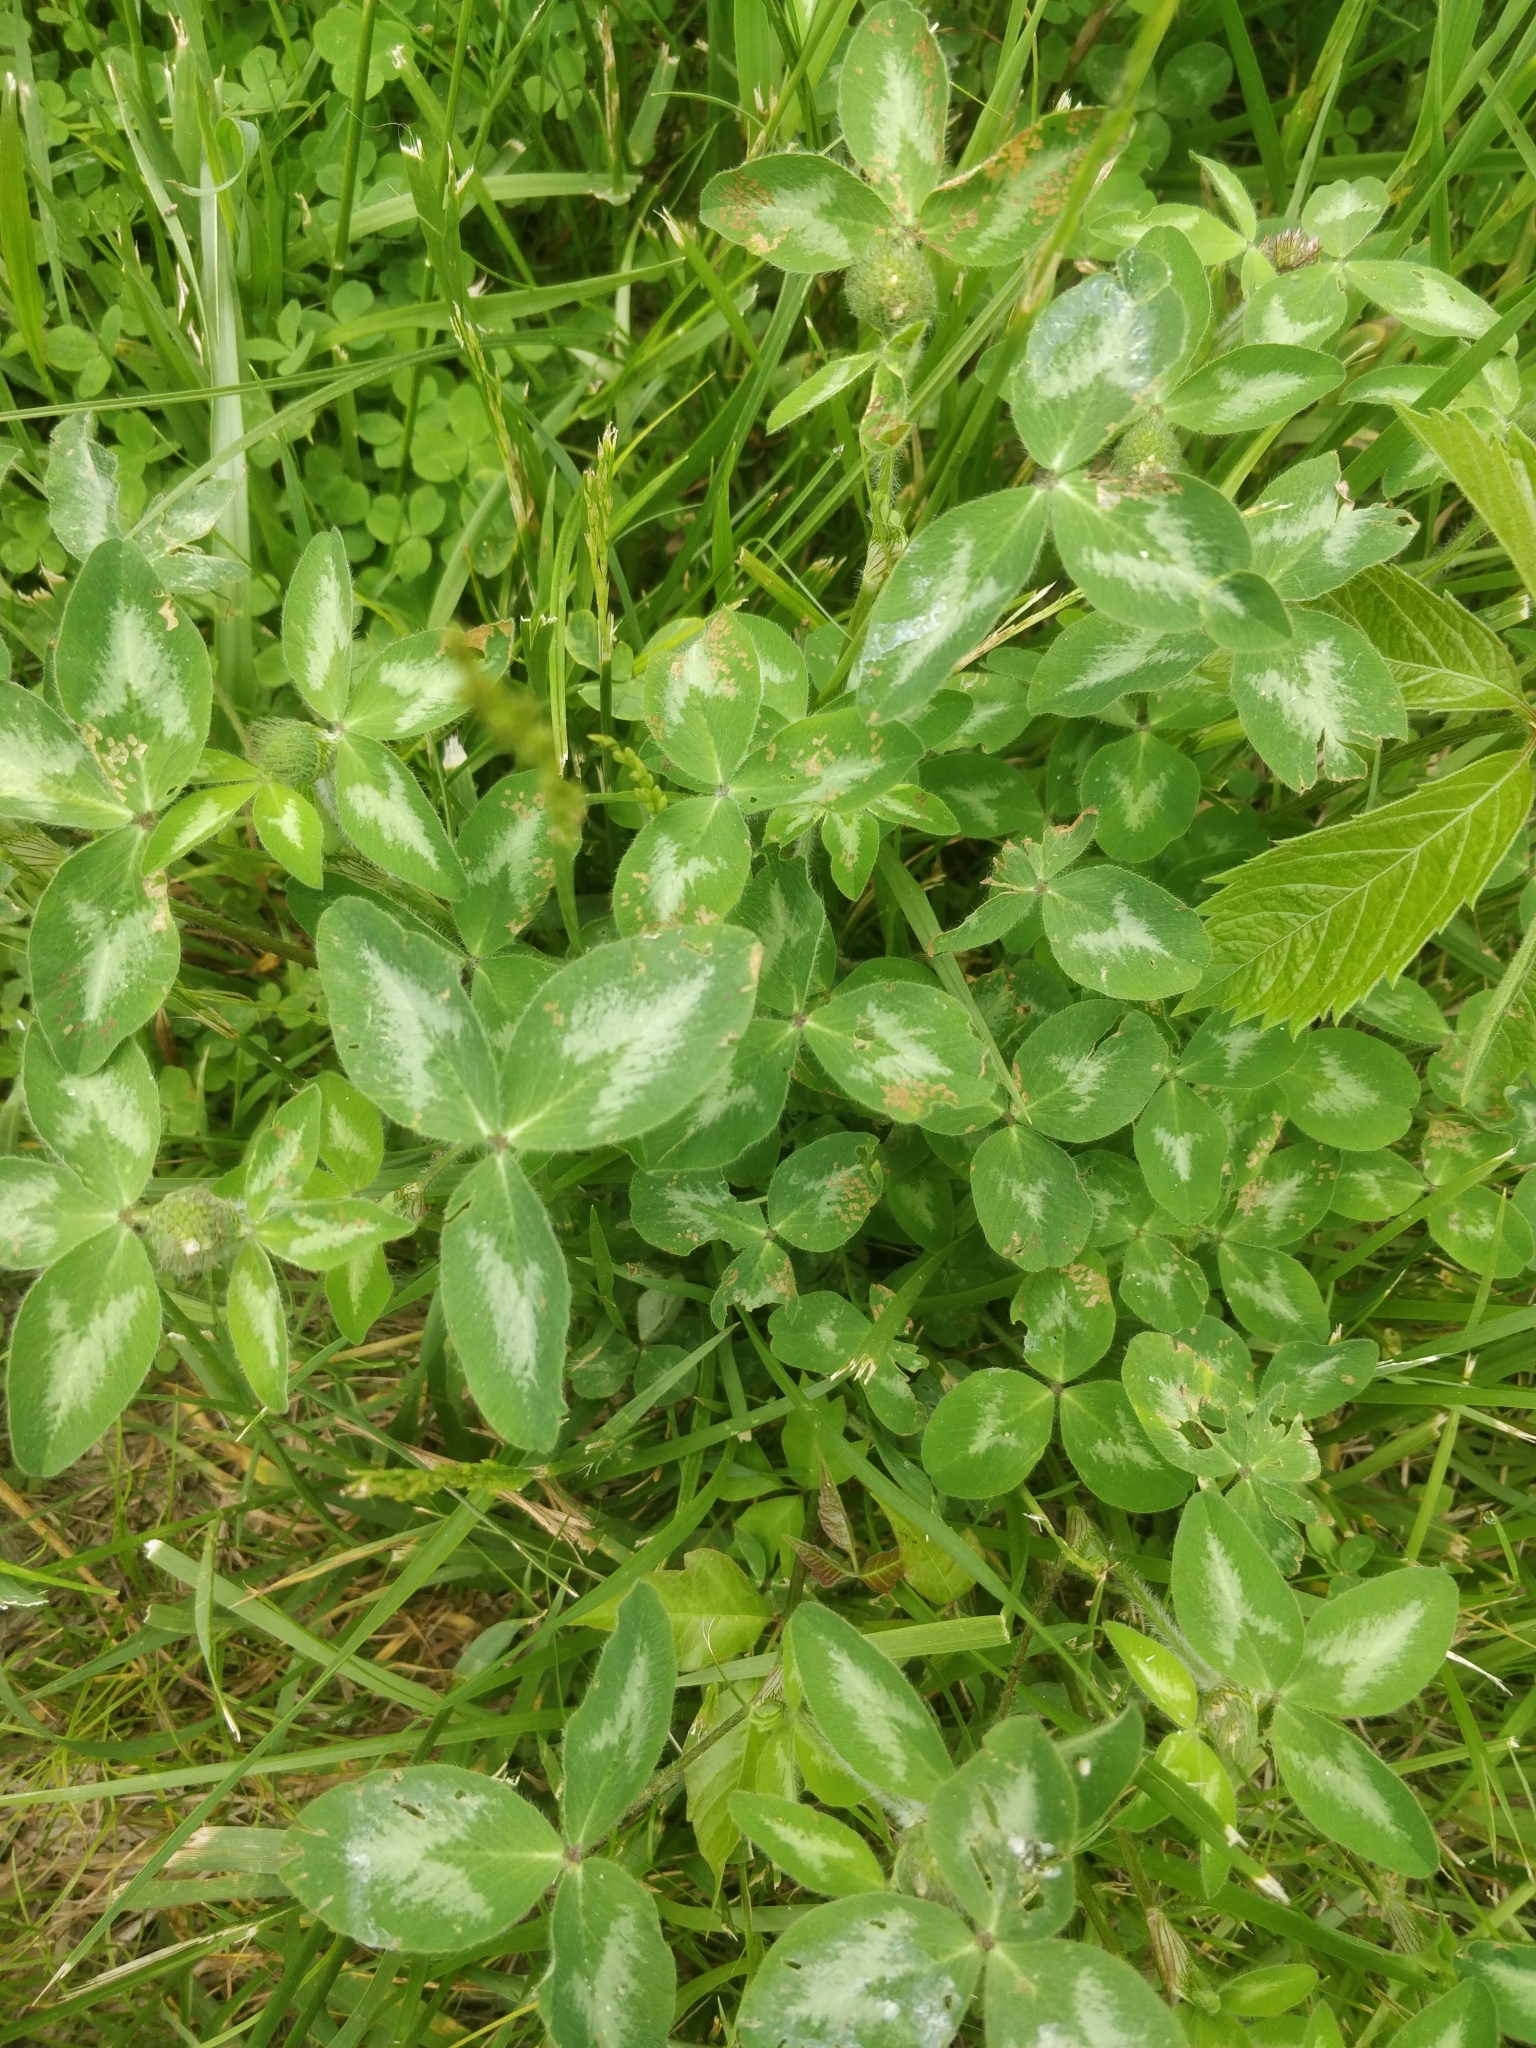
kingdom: Plantae
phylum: Tracheophyta
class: Magnoliopsida
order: Fabales
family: Fabaceae
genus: Trifolium
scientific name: Trifolium pratense
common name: Red clover
